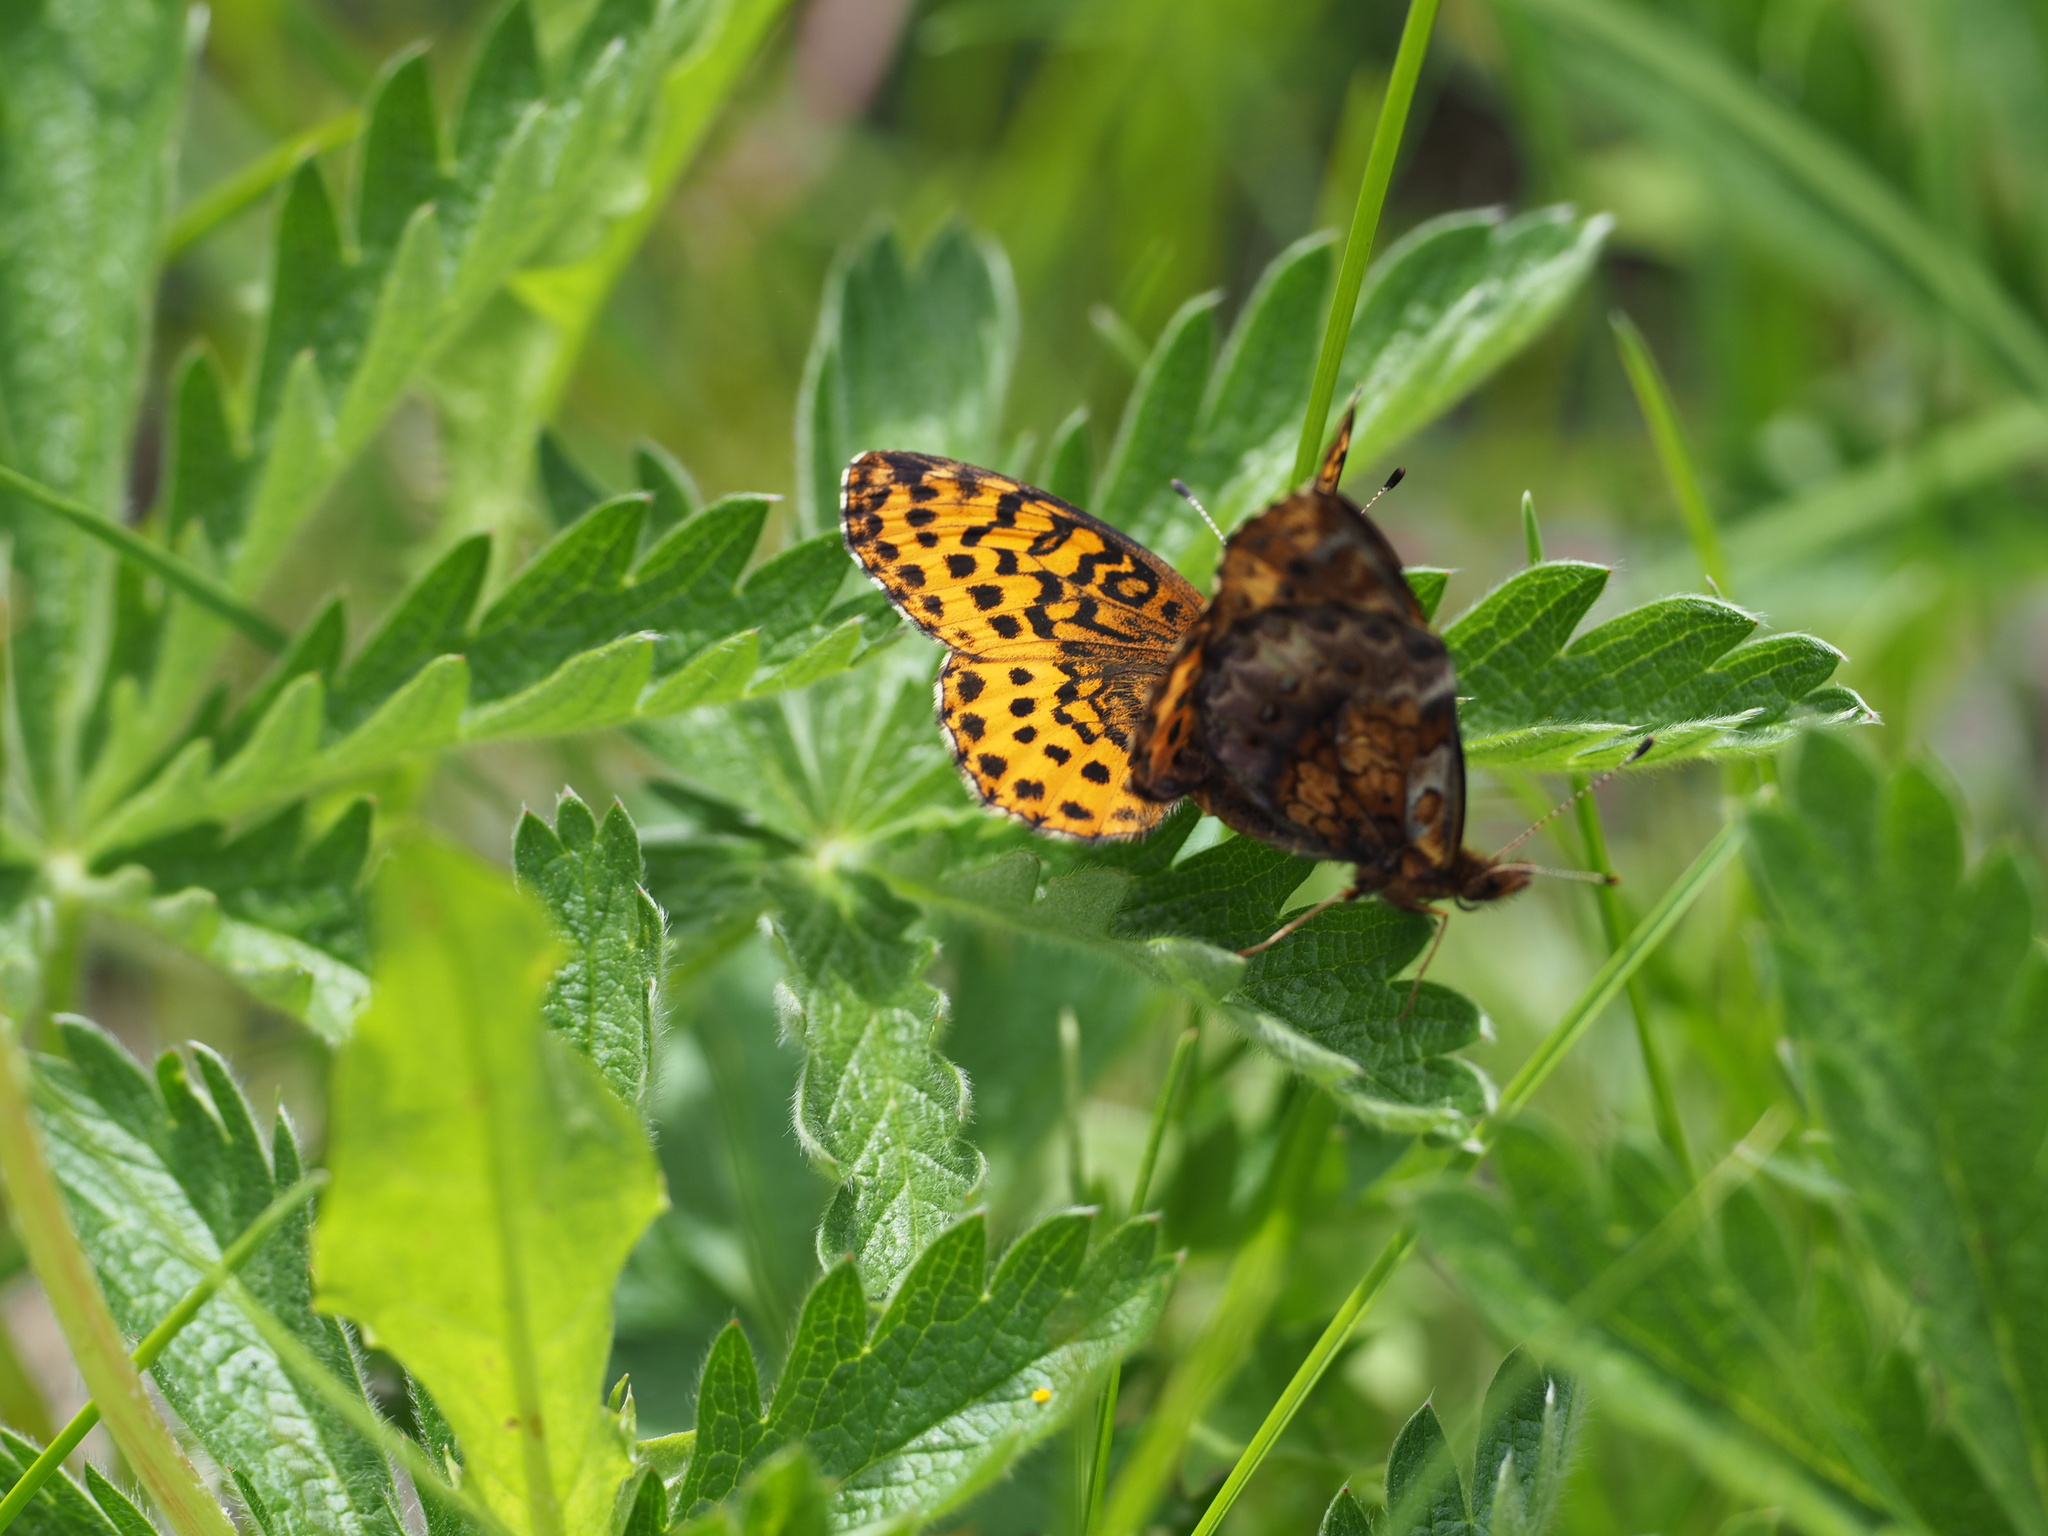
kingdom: Animalia
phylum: Arthropoda
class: Insecta
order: Lepidoptera
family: Nymphalidae
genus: Clossiana
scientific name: Clossiana toddi
